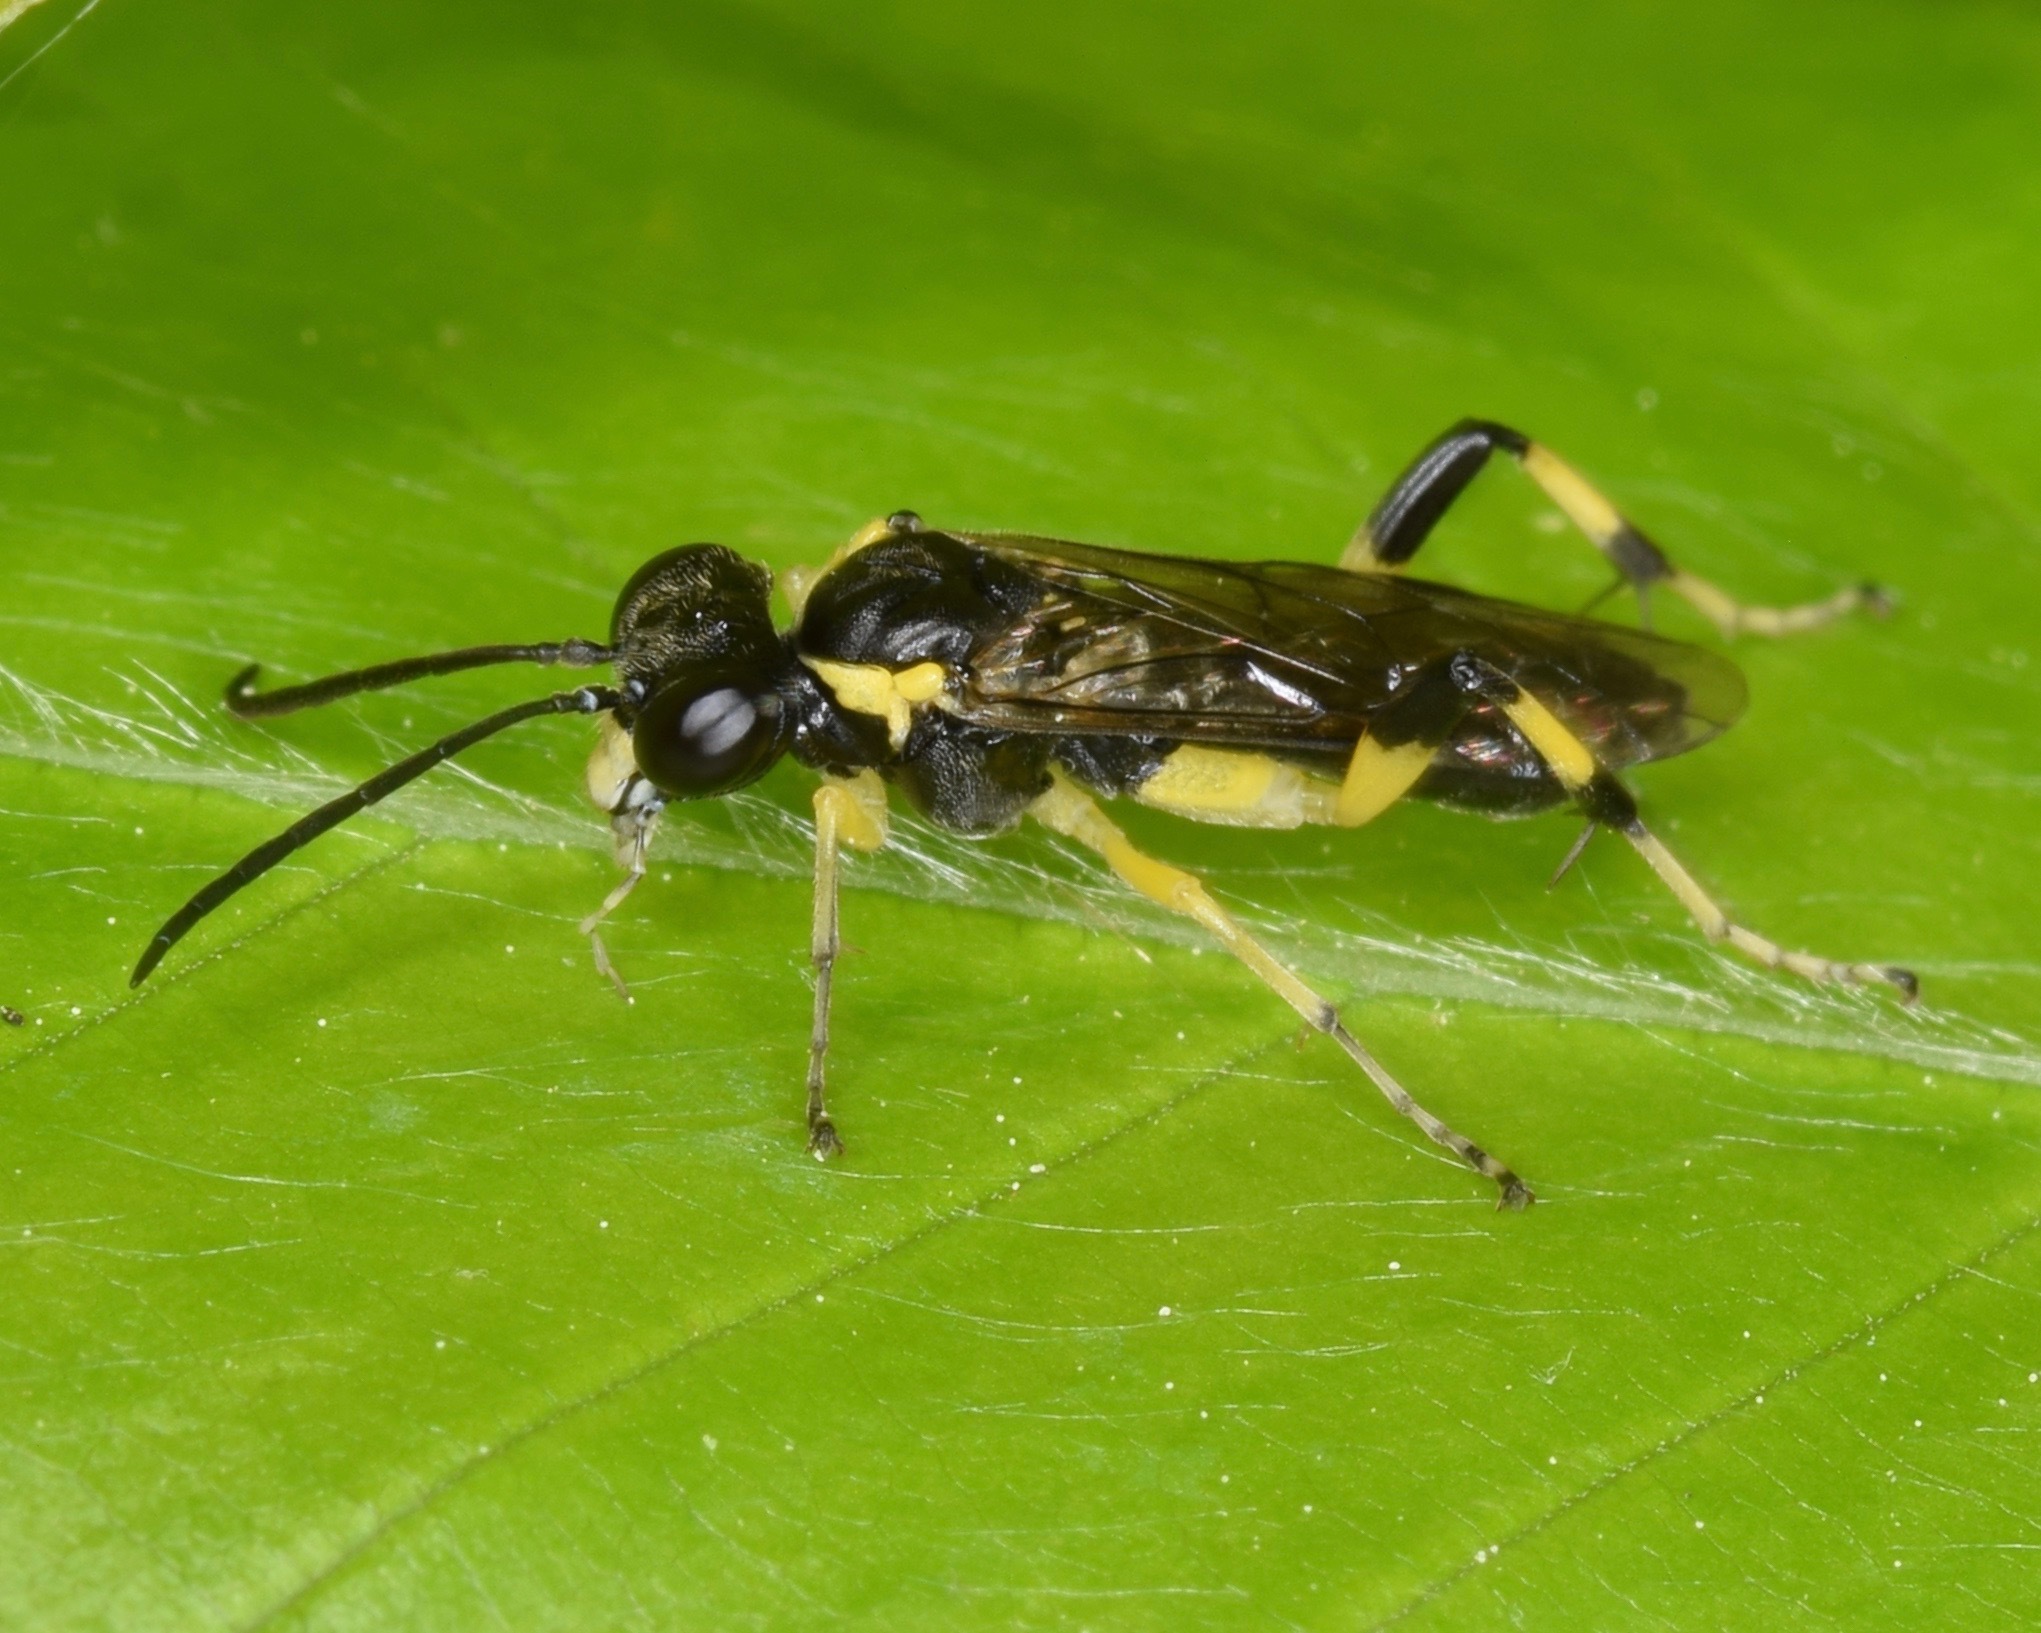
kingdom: Animalia
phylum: Arthropoda
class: Insecta
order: Hymenoptera
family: Tenthredinidae
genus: Macrophya
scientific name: Macrophya flavicoxae
